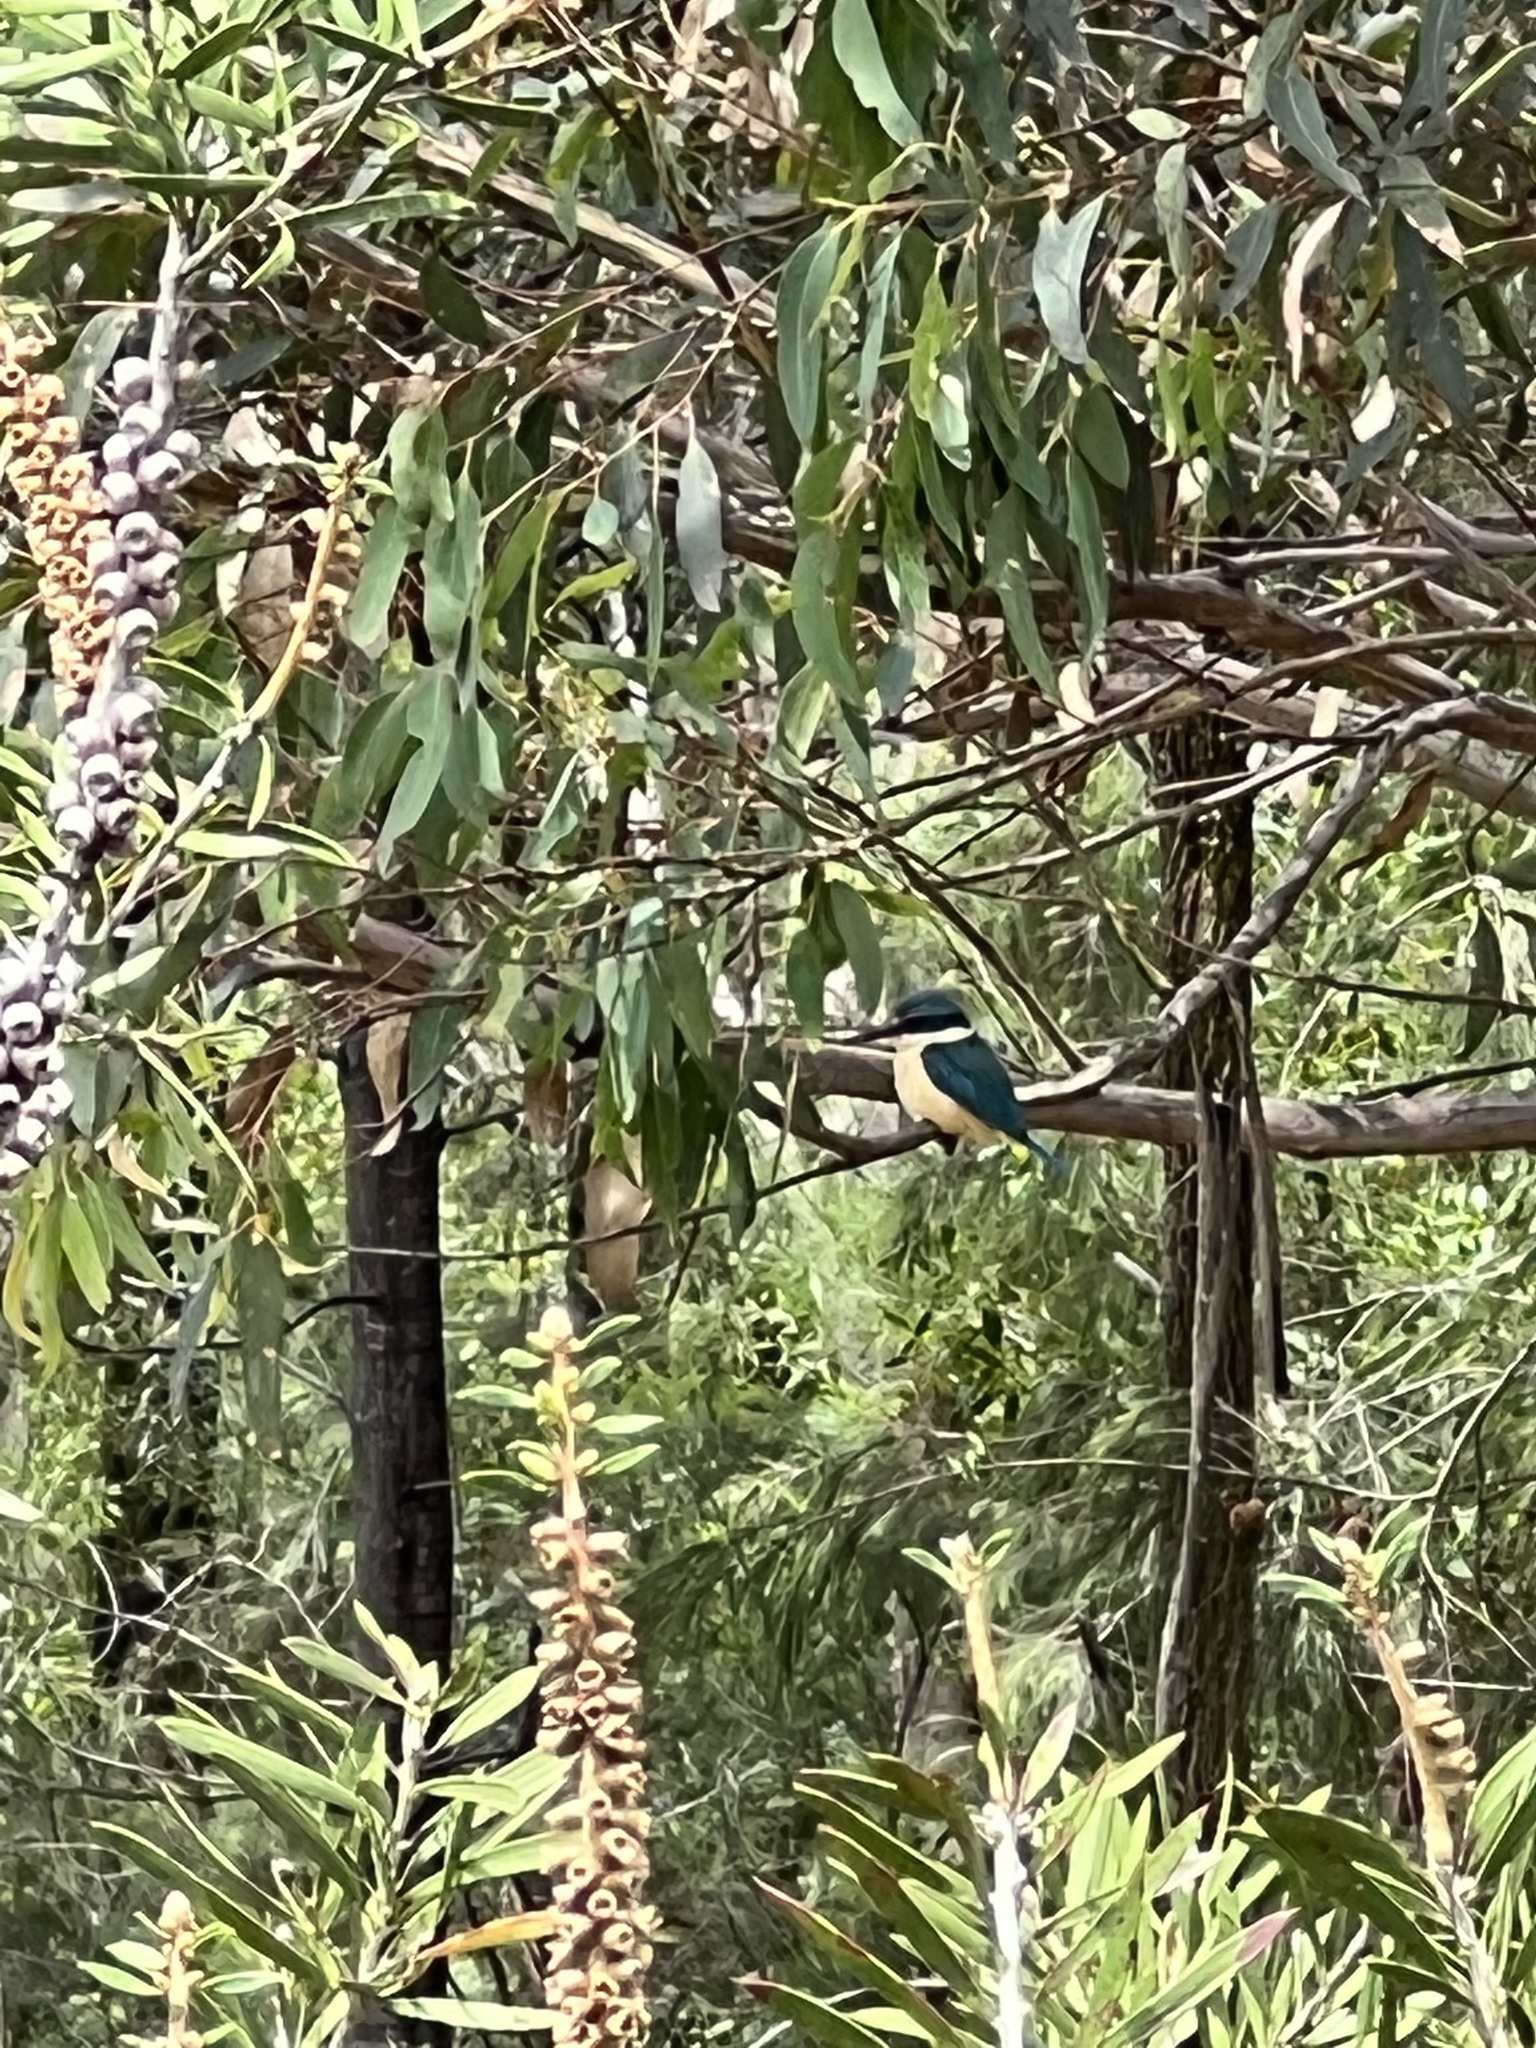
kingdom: Animalia
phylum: Chordata
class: Aves
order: Coraciiformes
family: Alcedinidae
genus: Todiramphus
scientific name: Todiramphus sanctus
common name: Sacred kingfisher
